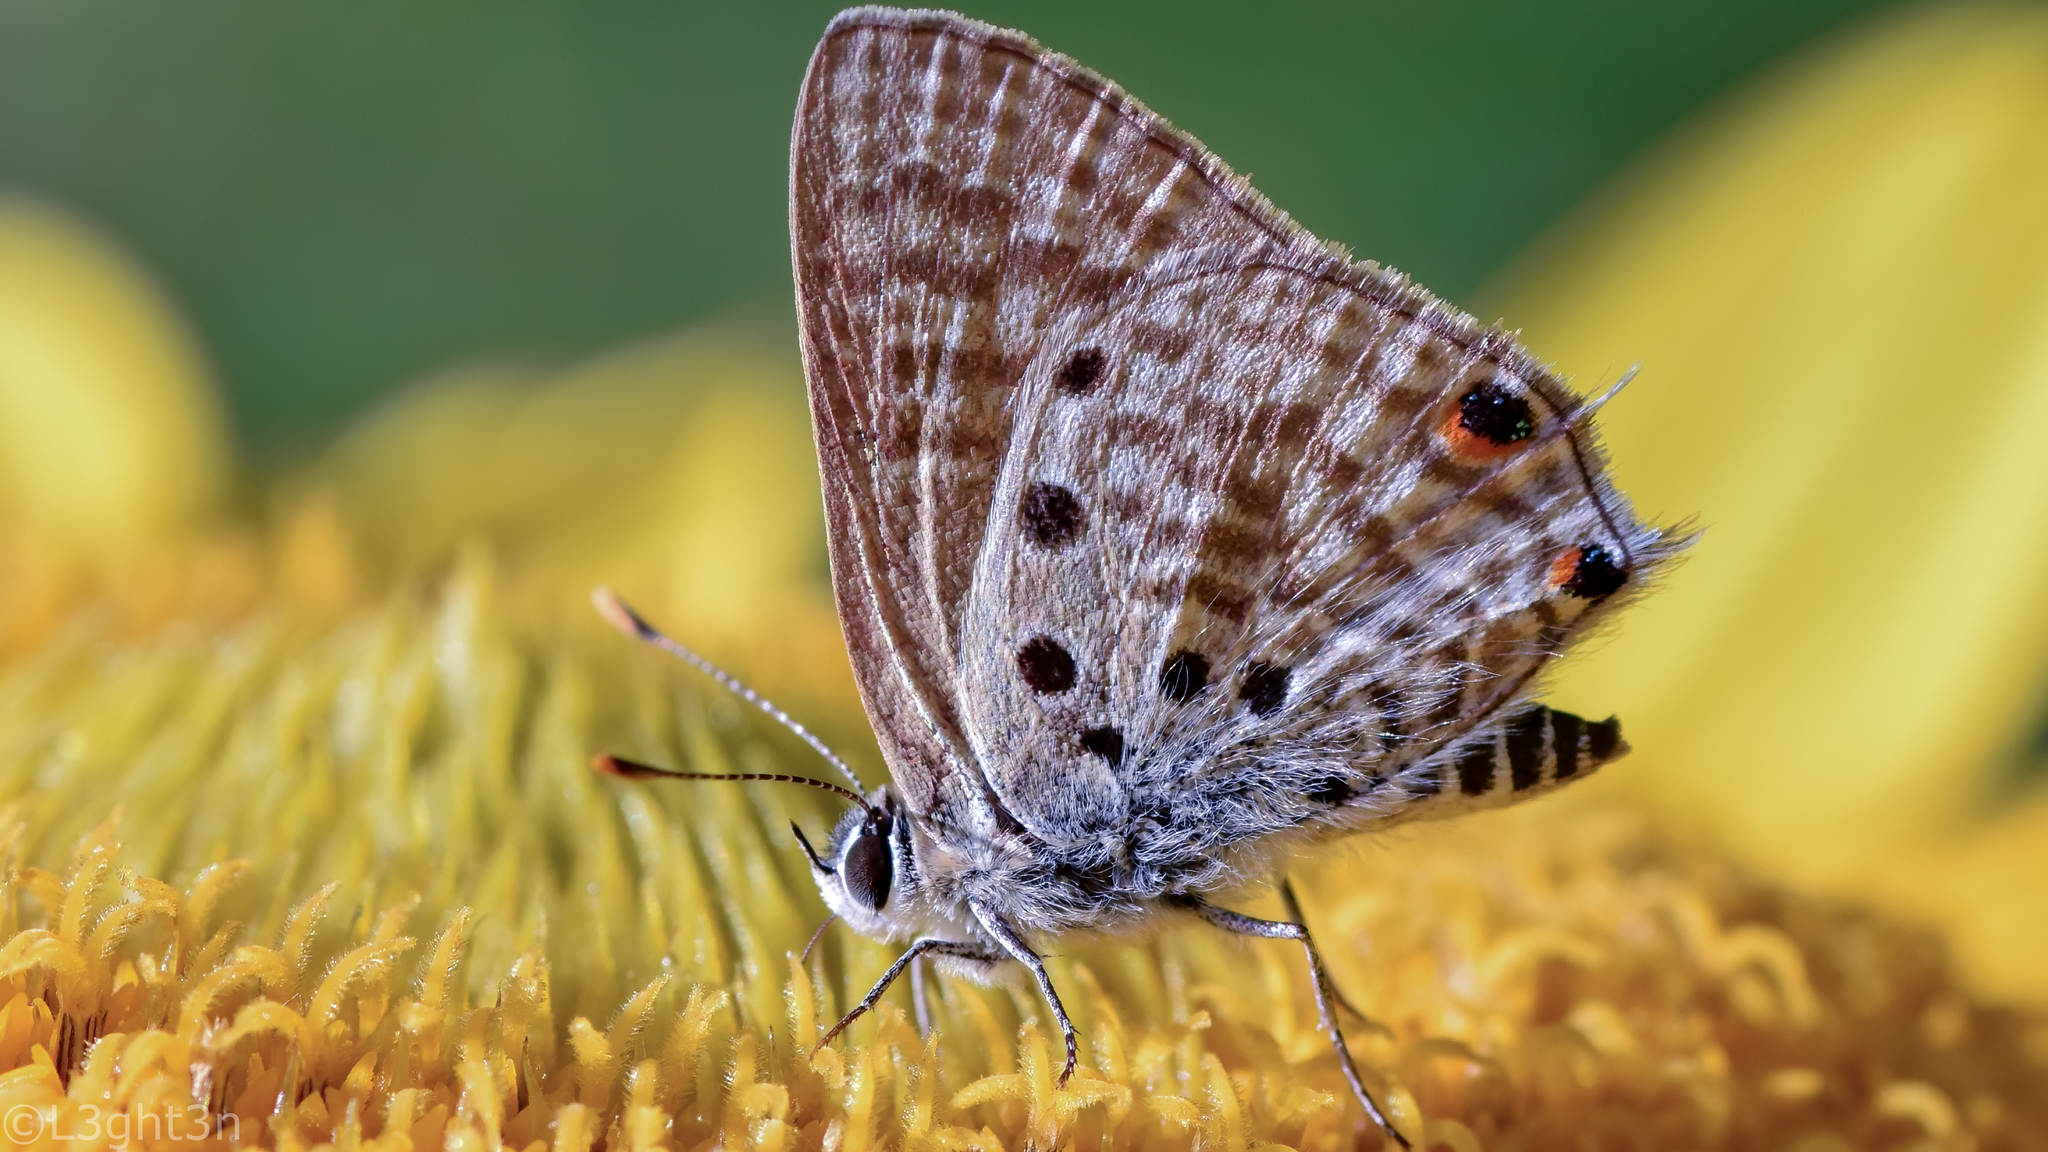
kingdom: Animalia
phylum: Arthropoda
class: Insecta
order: Lepidoptera
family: Lycaenidae
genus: Anthene
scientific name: Anthene amarah
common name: Black-striped hairtail
